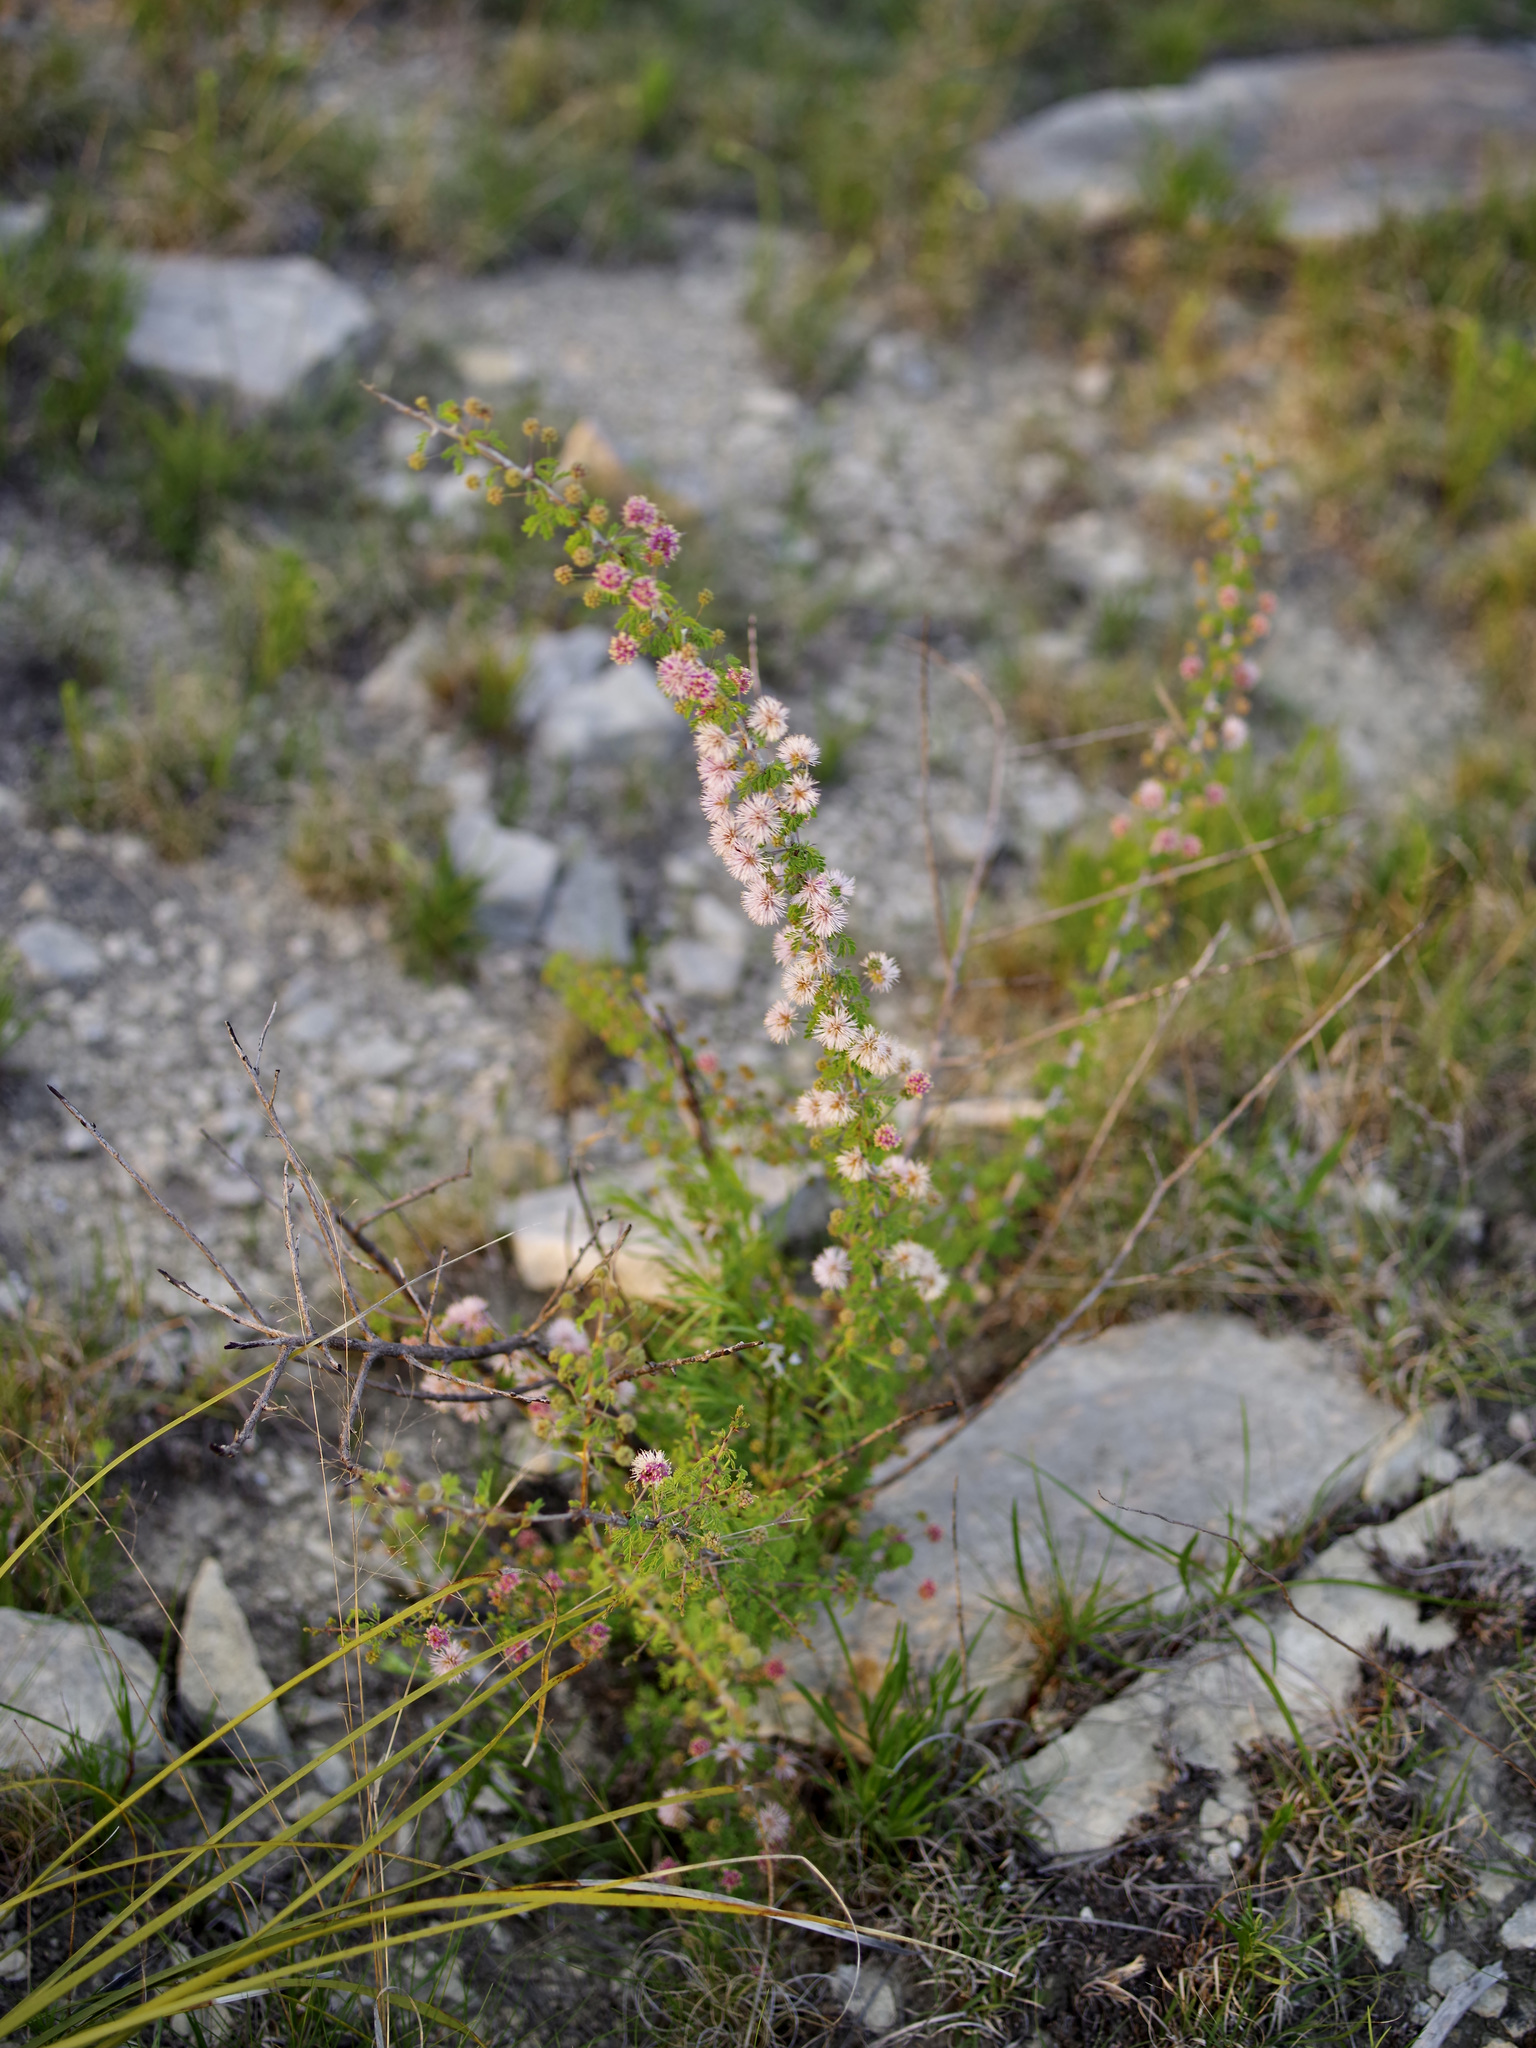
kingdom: Plantae
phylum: Tracheophyta
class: Magnoliopsida
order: Fabales
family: Fabaceae
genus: Mimosa
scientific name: Mimosa borealis
